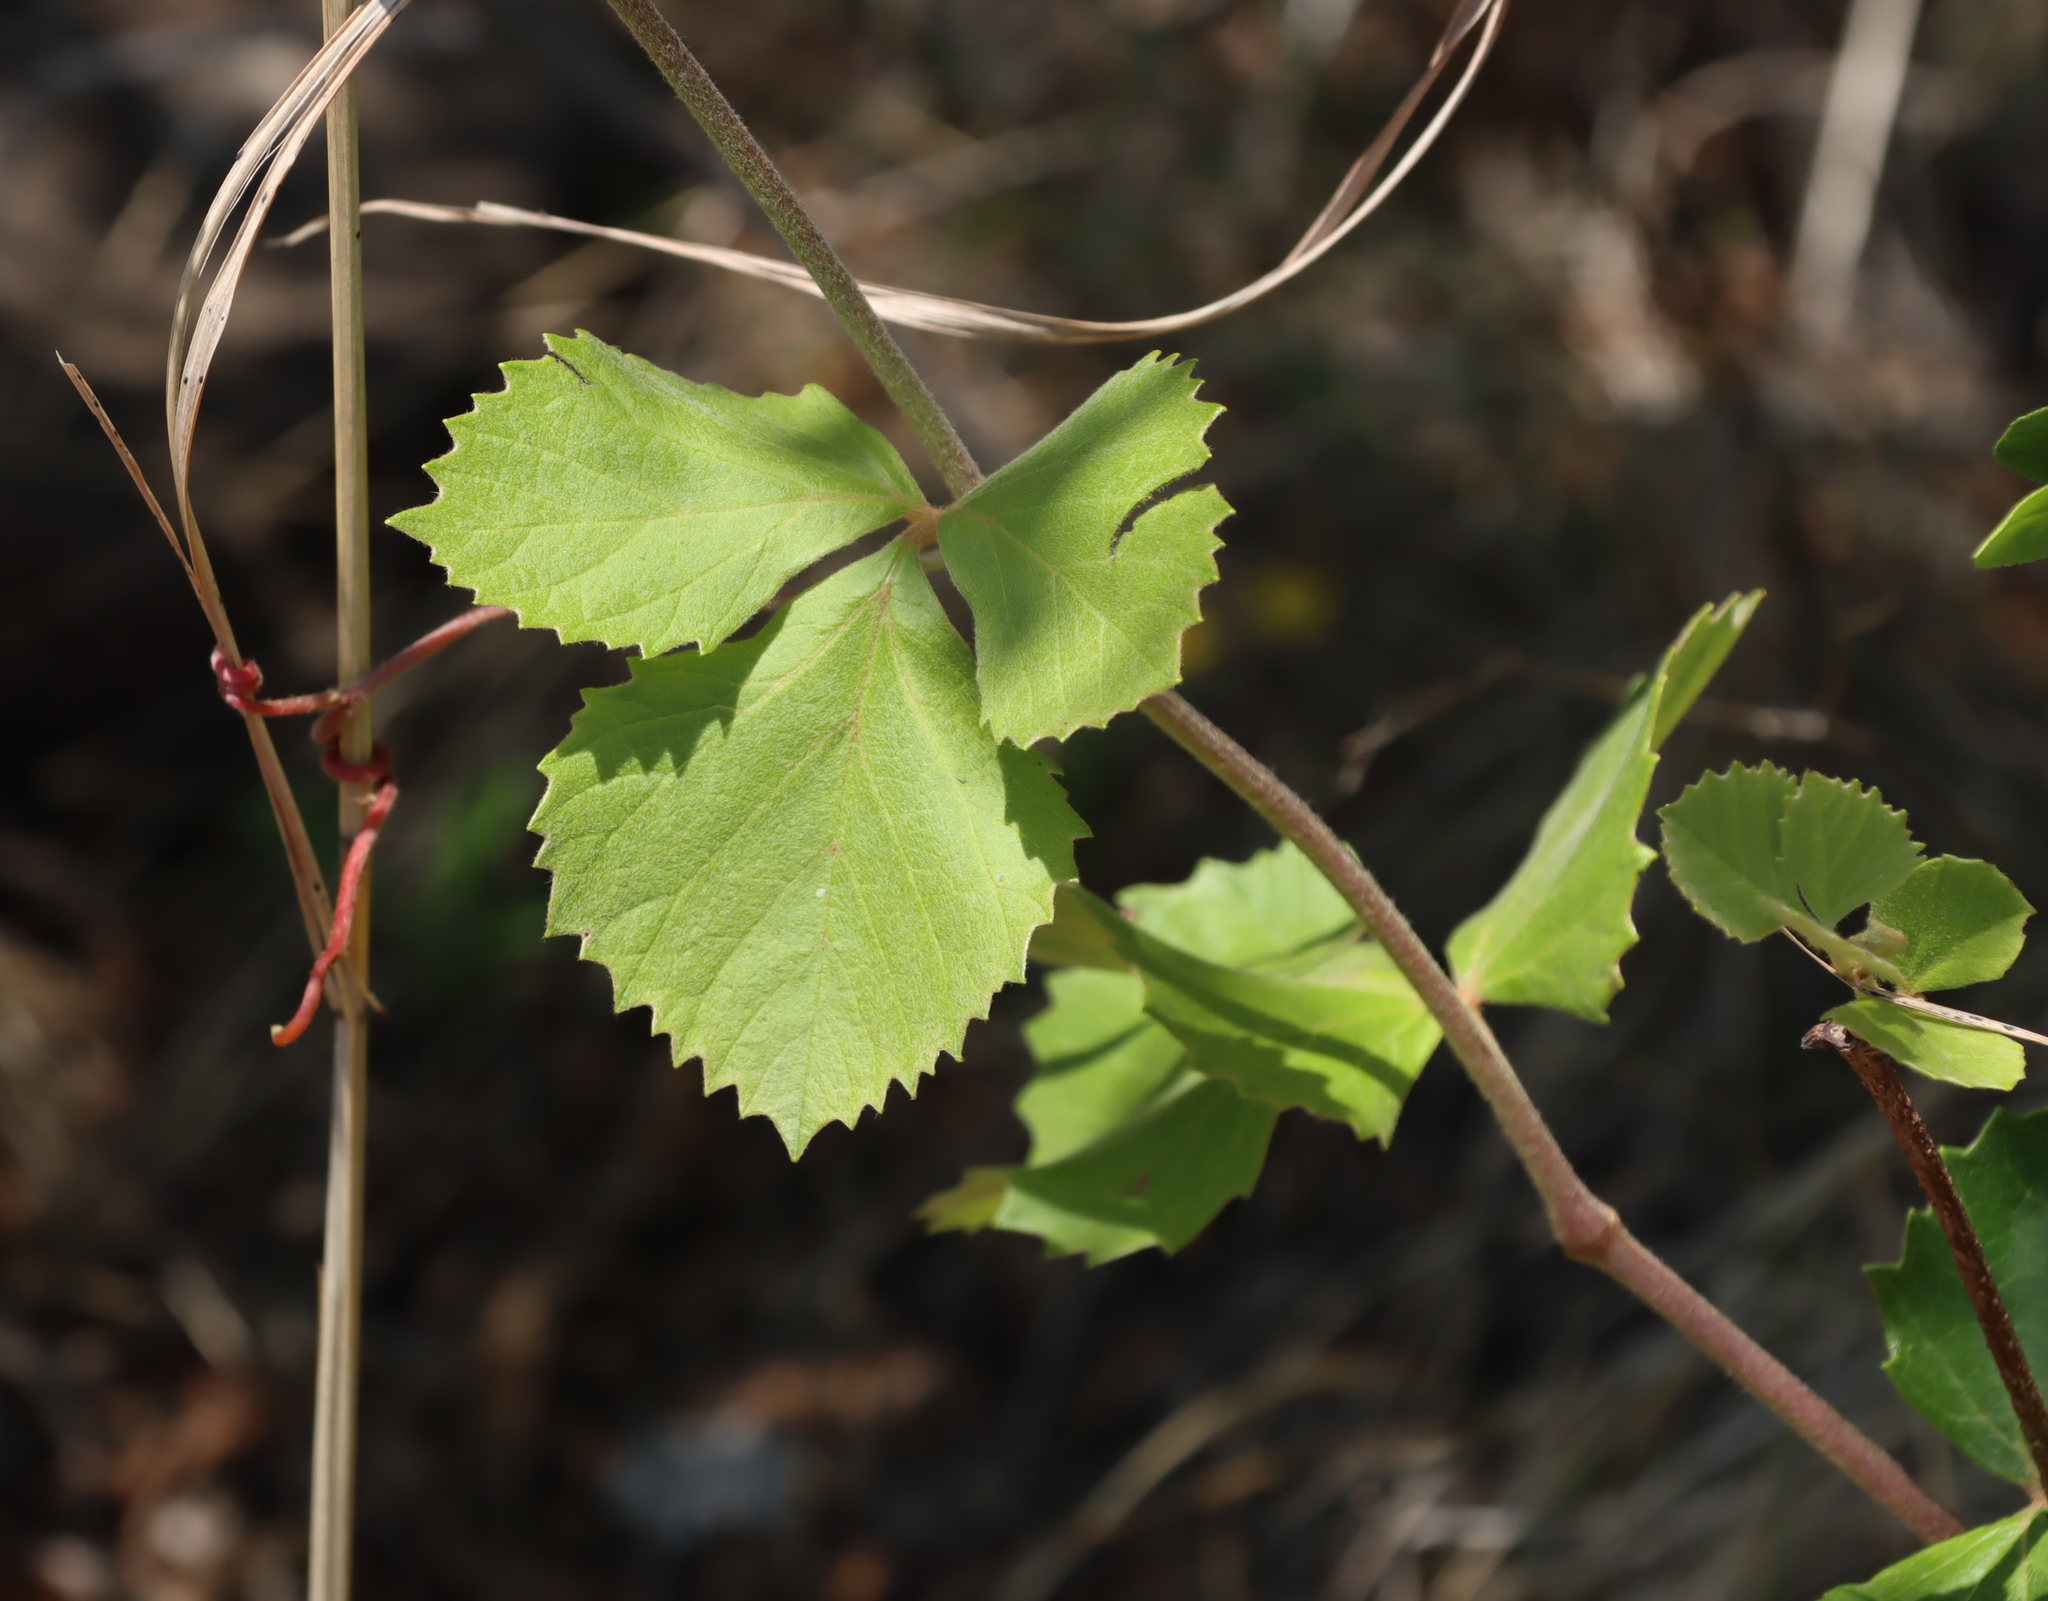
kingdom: Plantae
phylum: Tracheophyta
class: Magnoliopsida
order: Vitales
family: Vitaceae
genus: Rhoicissus
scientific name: Rhoicissus tridentata
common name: Common forest grape
